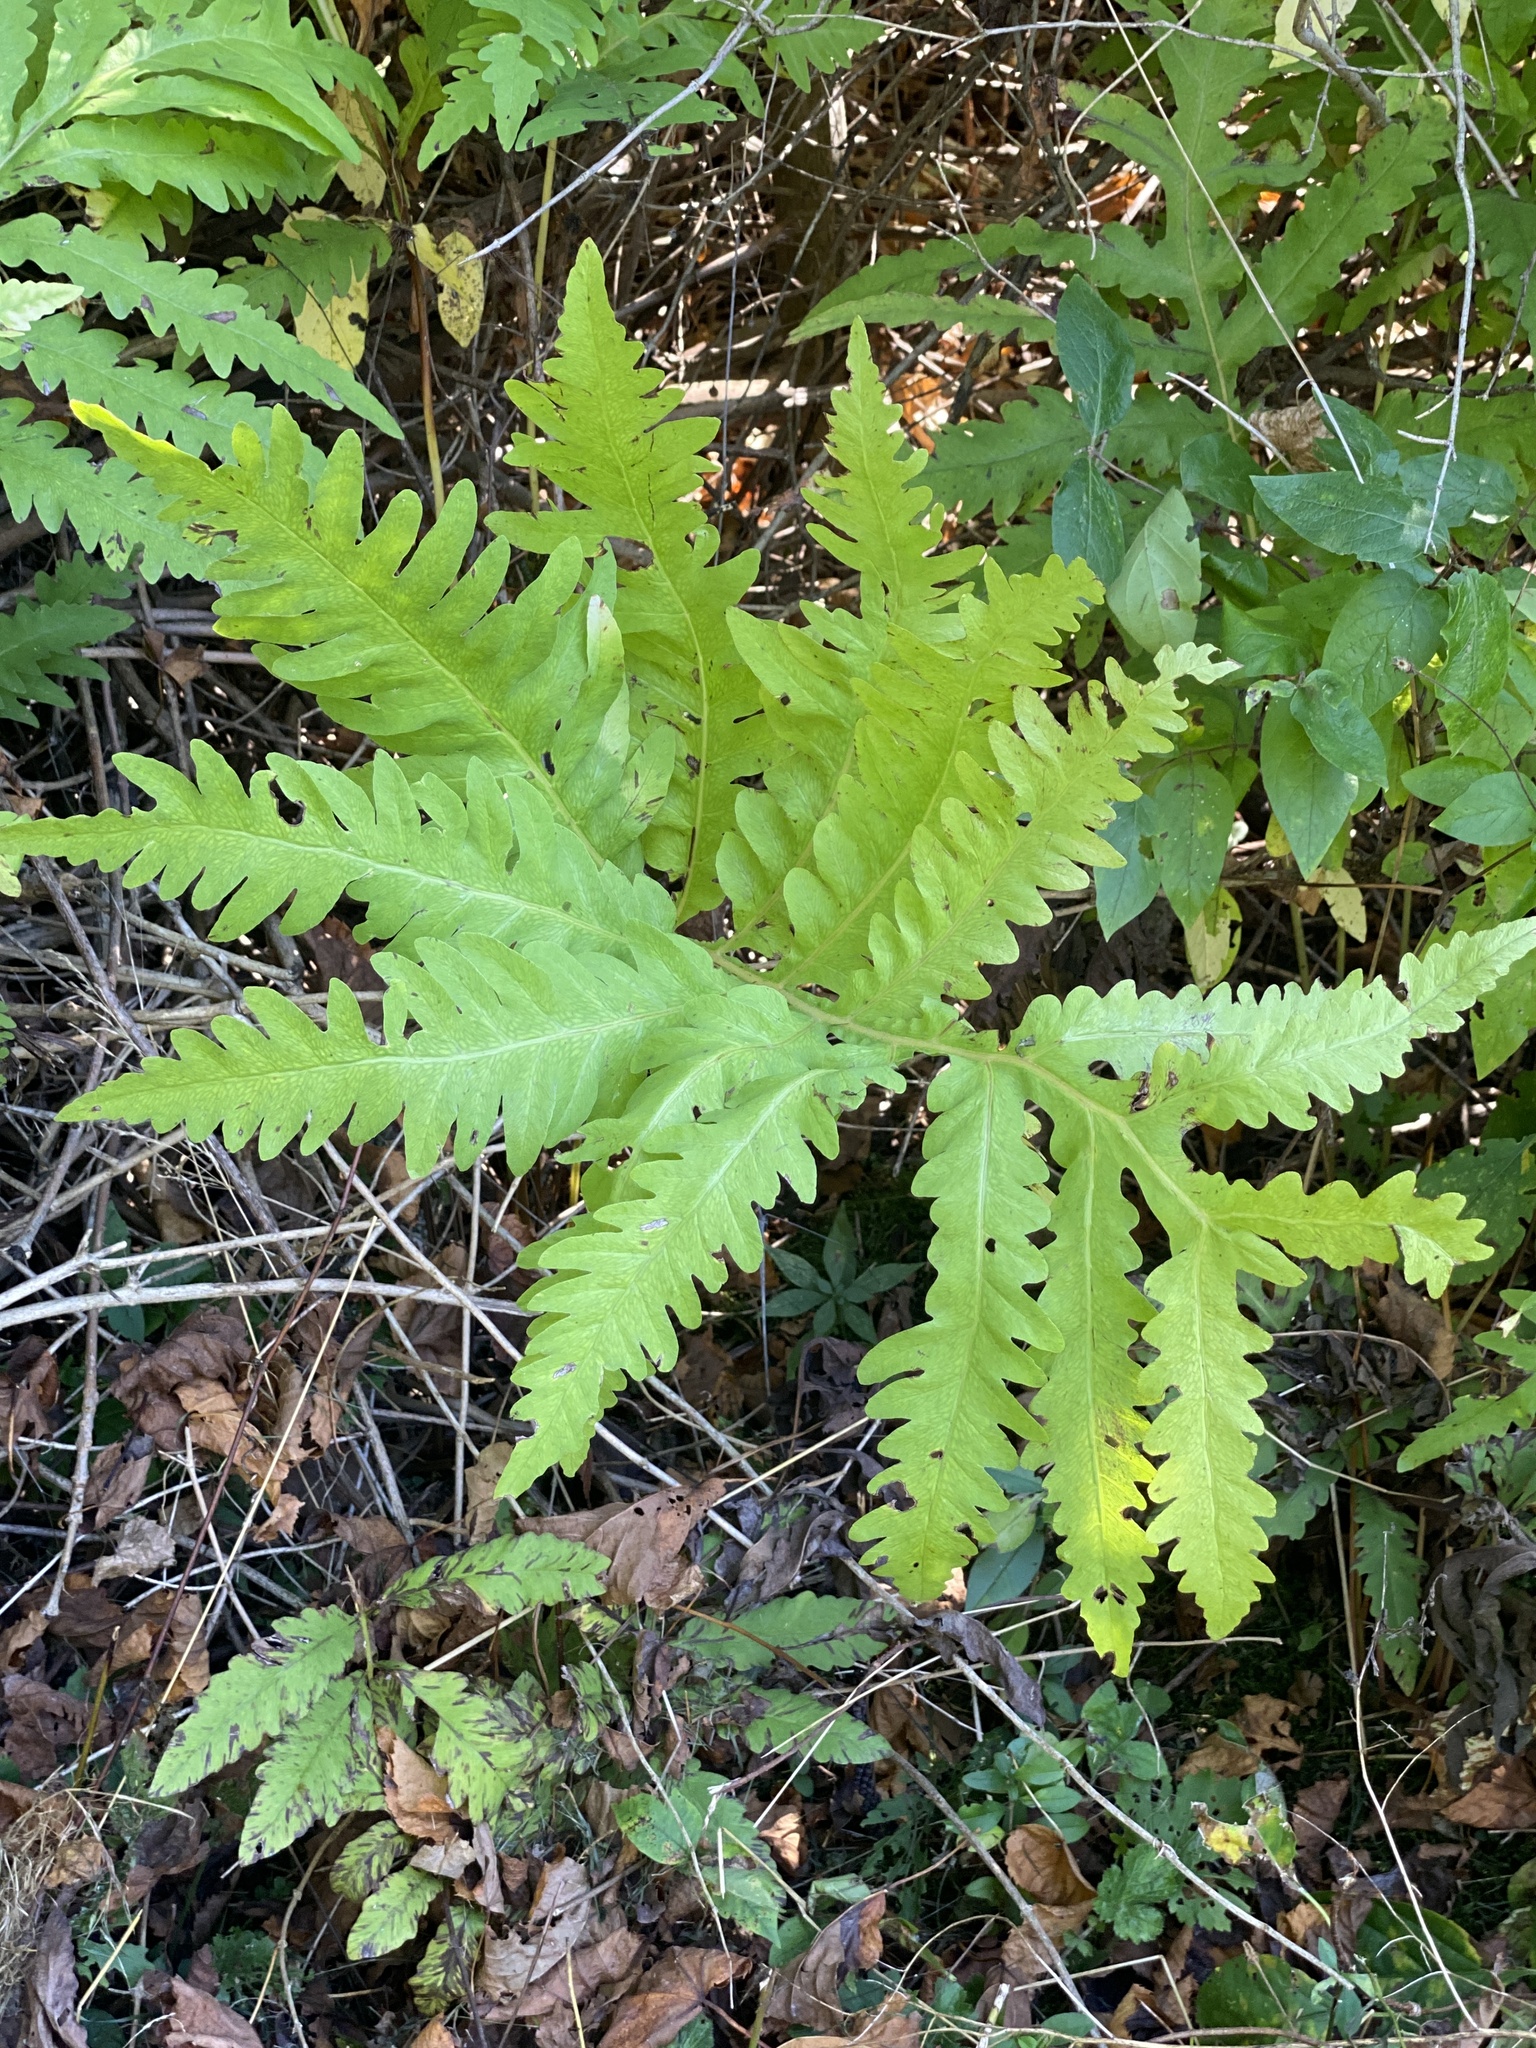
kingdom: Plantae
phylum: Tracheophyta
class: Polypodiopsida
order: Polypodiales
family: Onocleaceae
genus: Onoclea
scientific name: Onoclea sensibilis
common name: Sensitive fern
